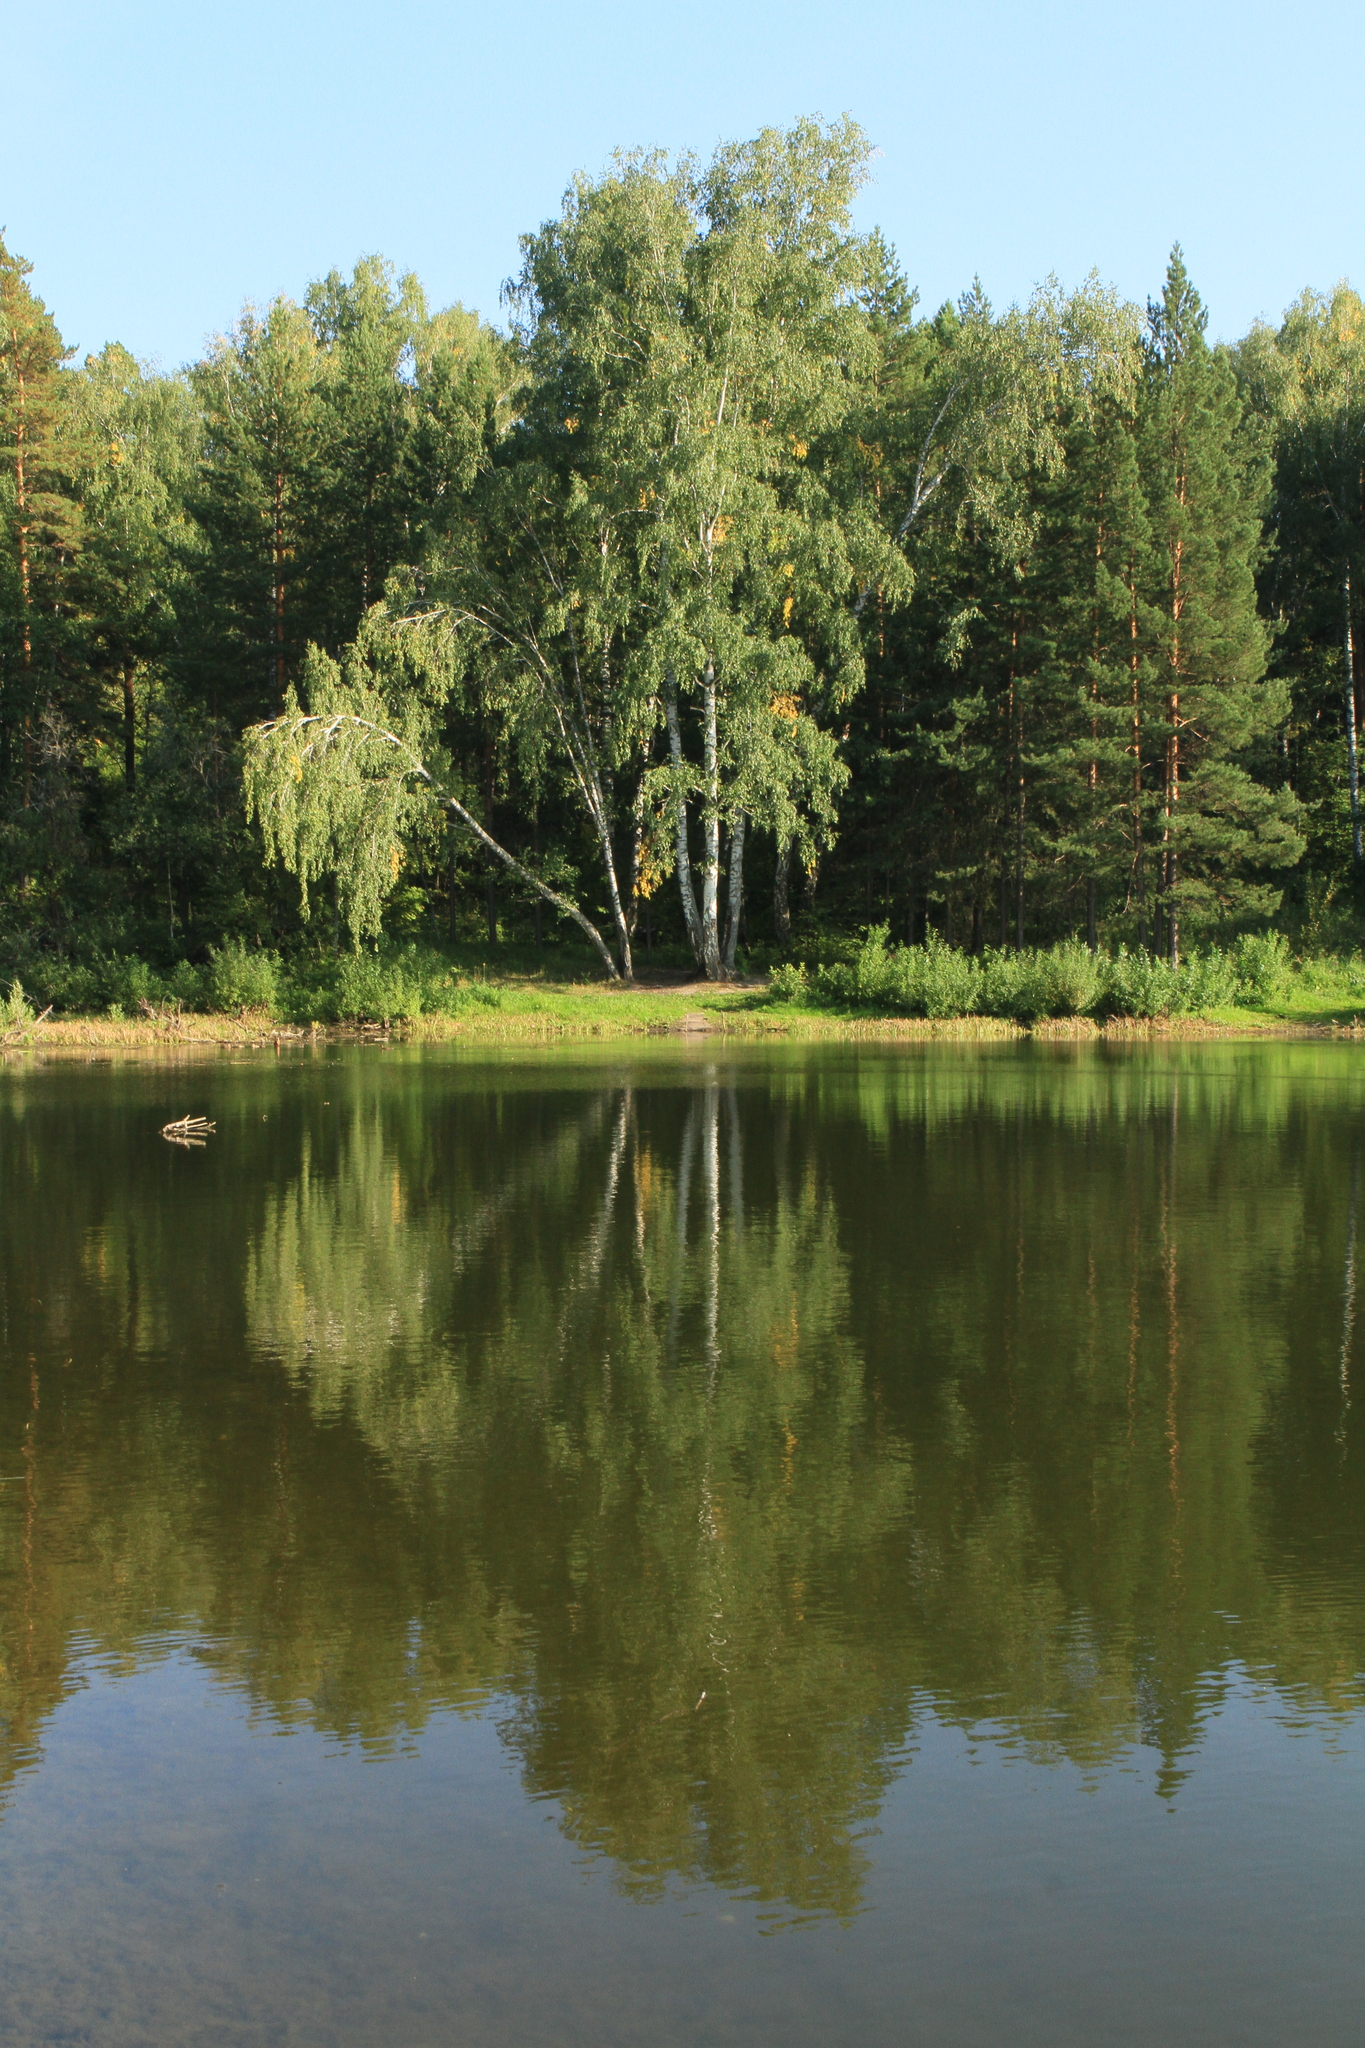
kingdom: Plantae
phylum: Tracheophyta
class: Pinopsida
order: Pinales
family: Pinaceae
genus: Pinus
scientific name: Pinus sylvestris
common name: Scots pine
